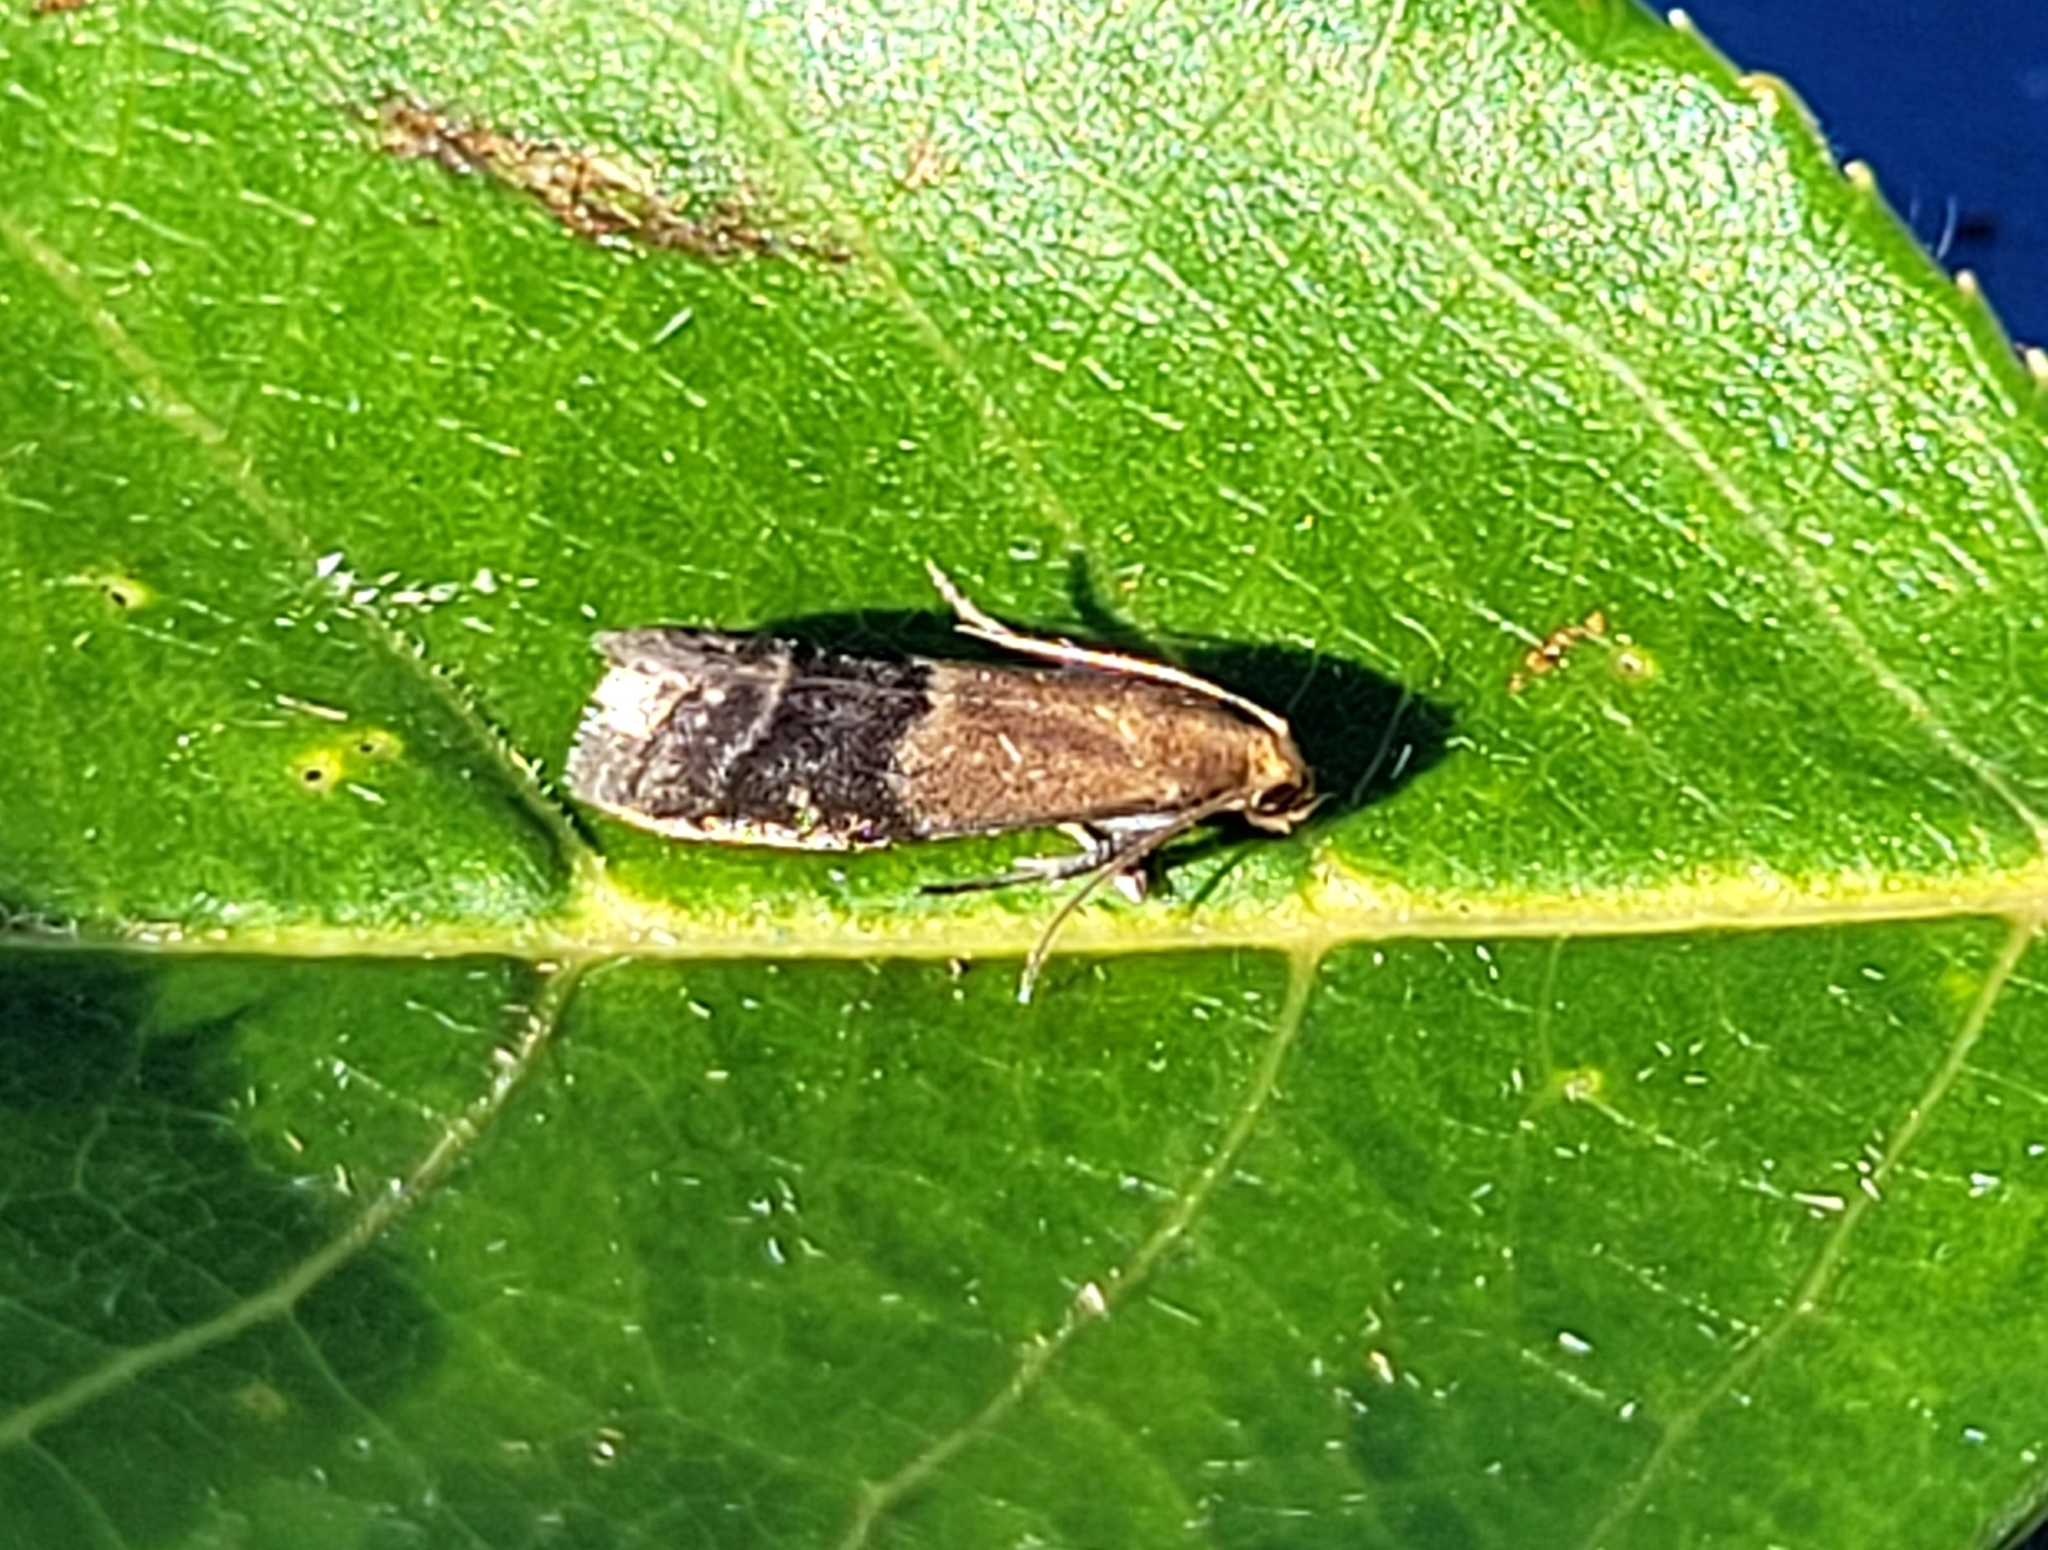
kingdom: Animalia
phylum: Arthropoda
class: Insecta
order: Lepidoptera
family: Pyralidae
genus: Eulogia
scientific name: Eulogia ochrifrontella
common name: Broad-banded eulogia moth
